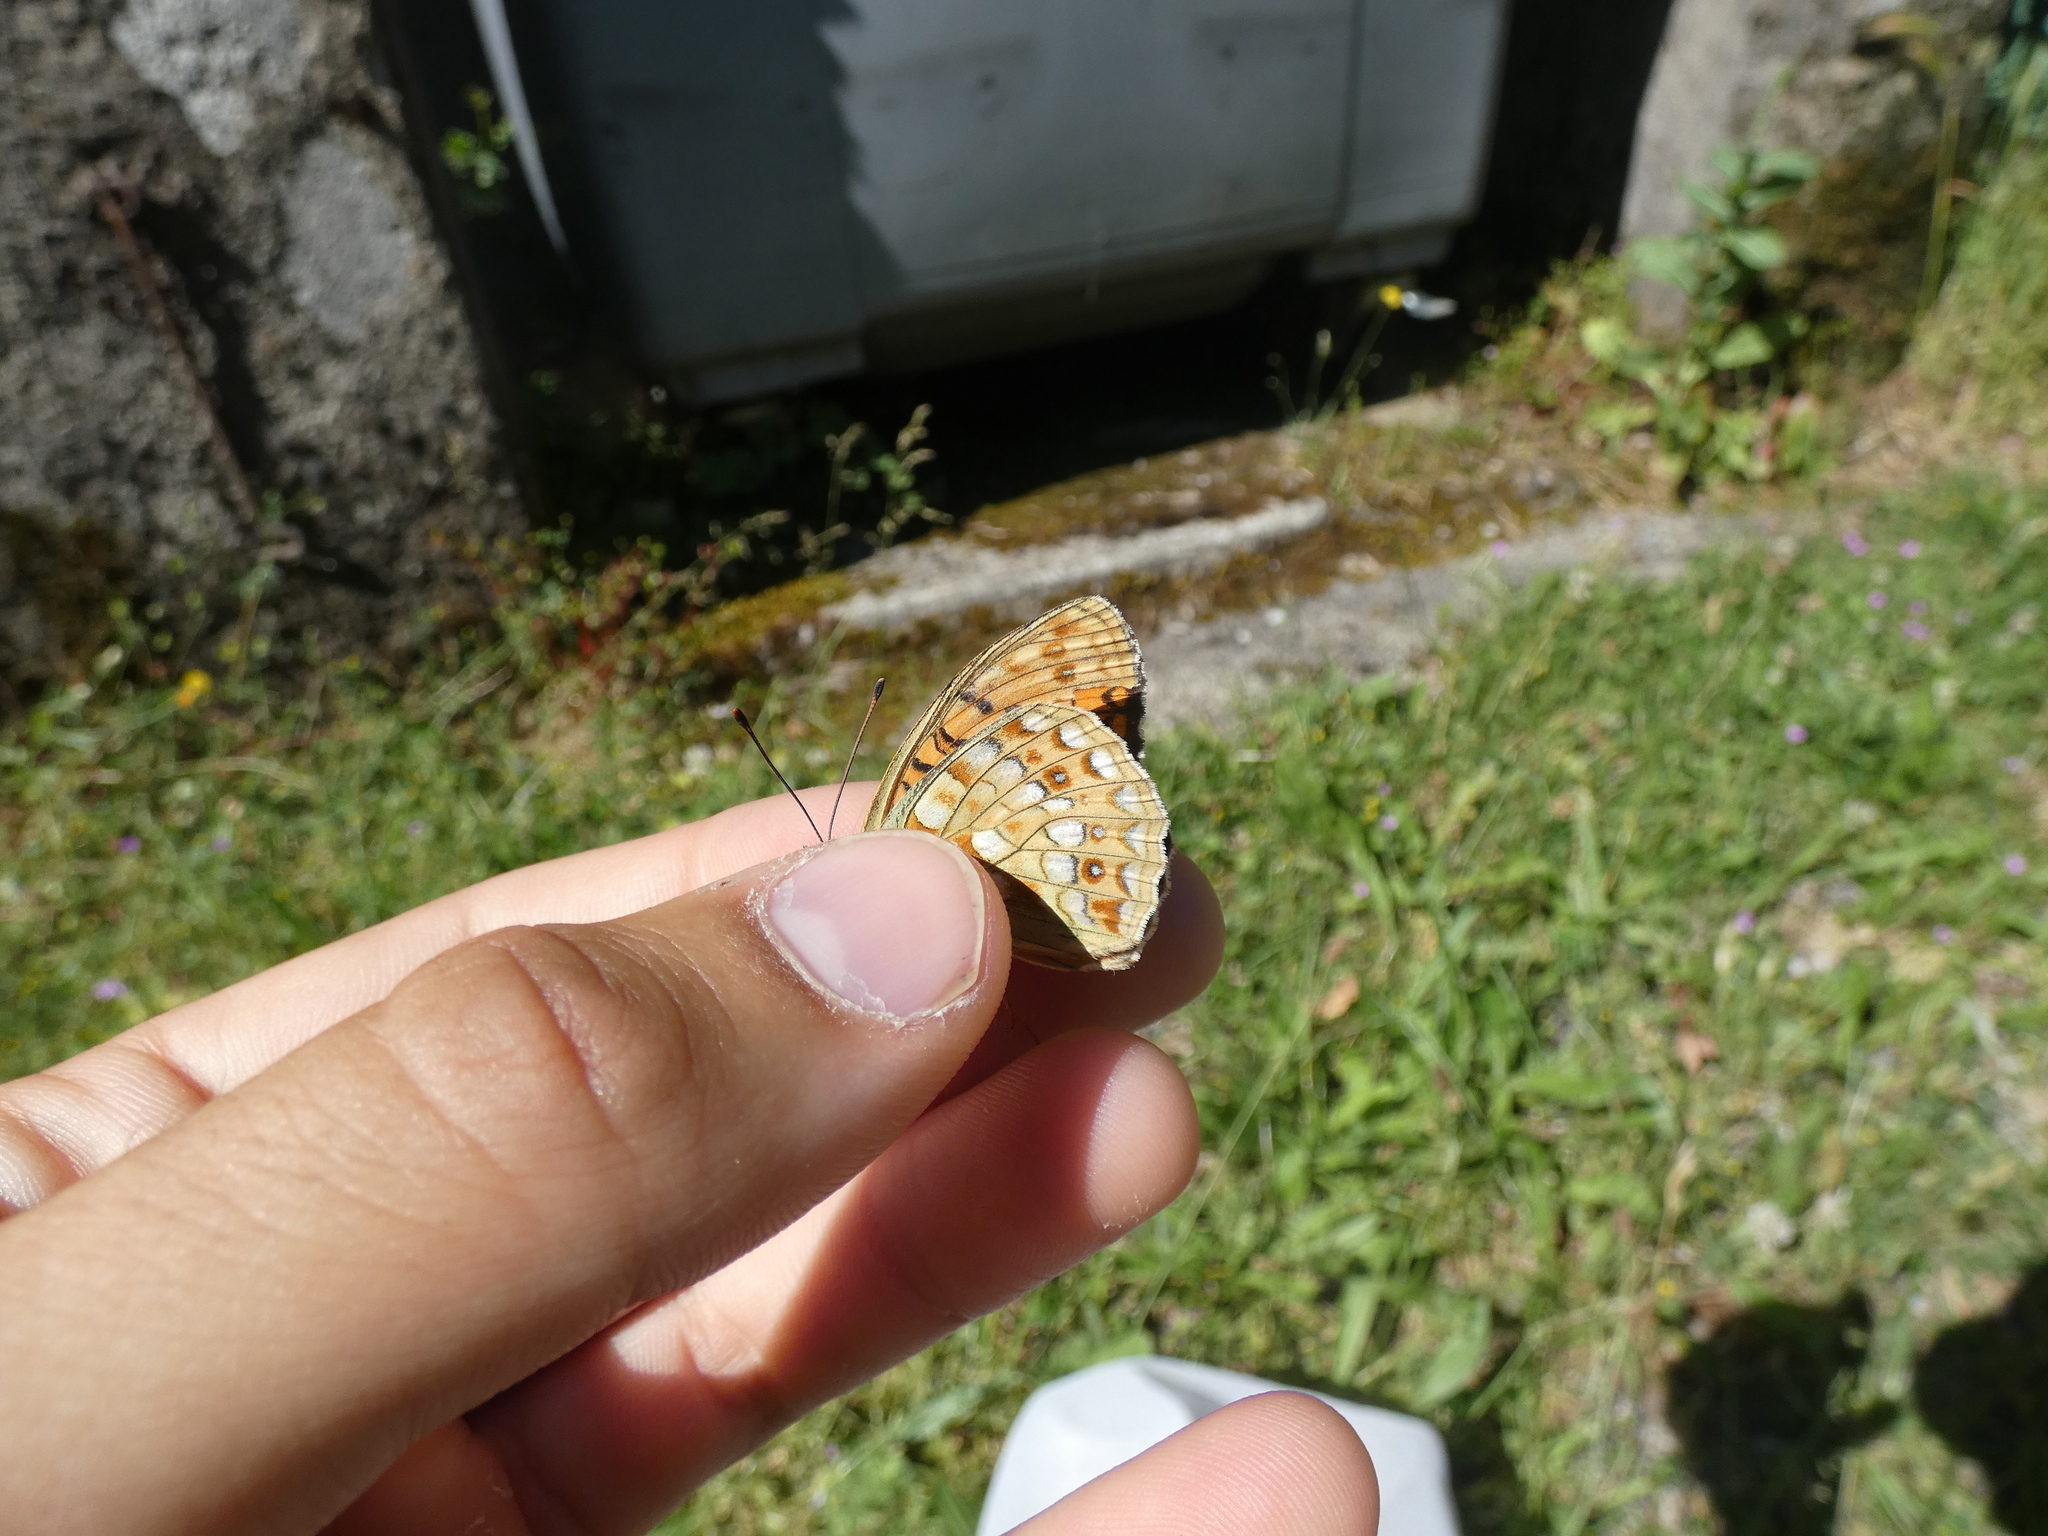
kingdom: Animalia
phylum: Arthropoda
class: Insecta
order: Lepidoptera
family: Nymphalidae
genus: Fabriciana
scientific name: Fabriciana niobe
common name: Niobe fritillary
